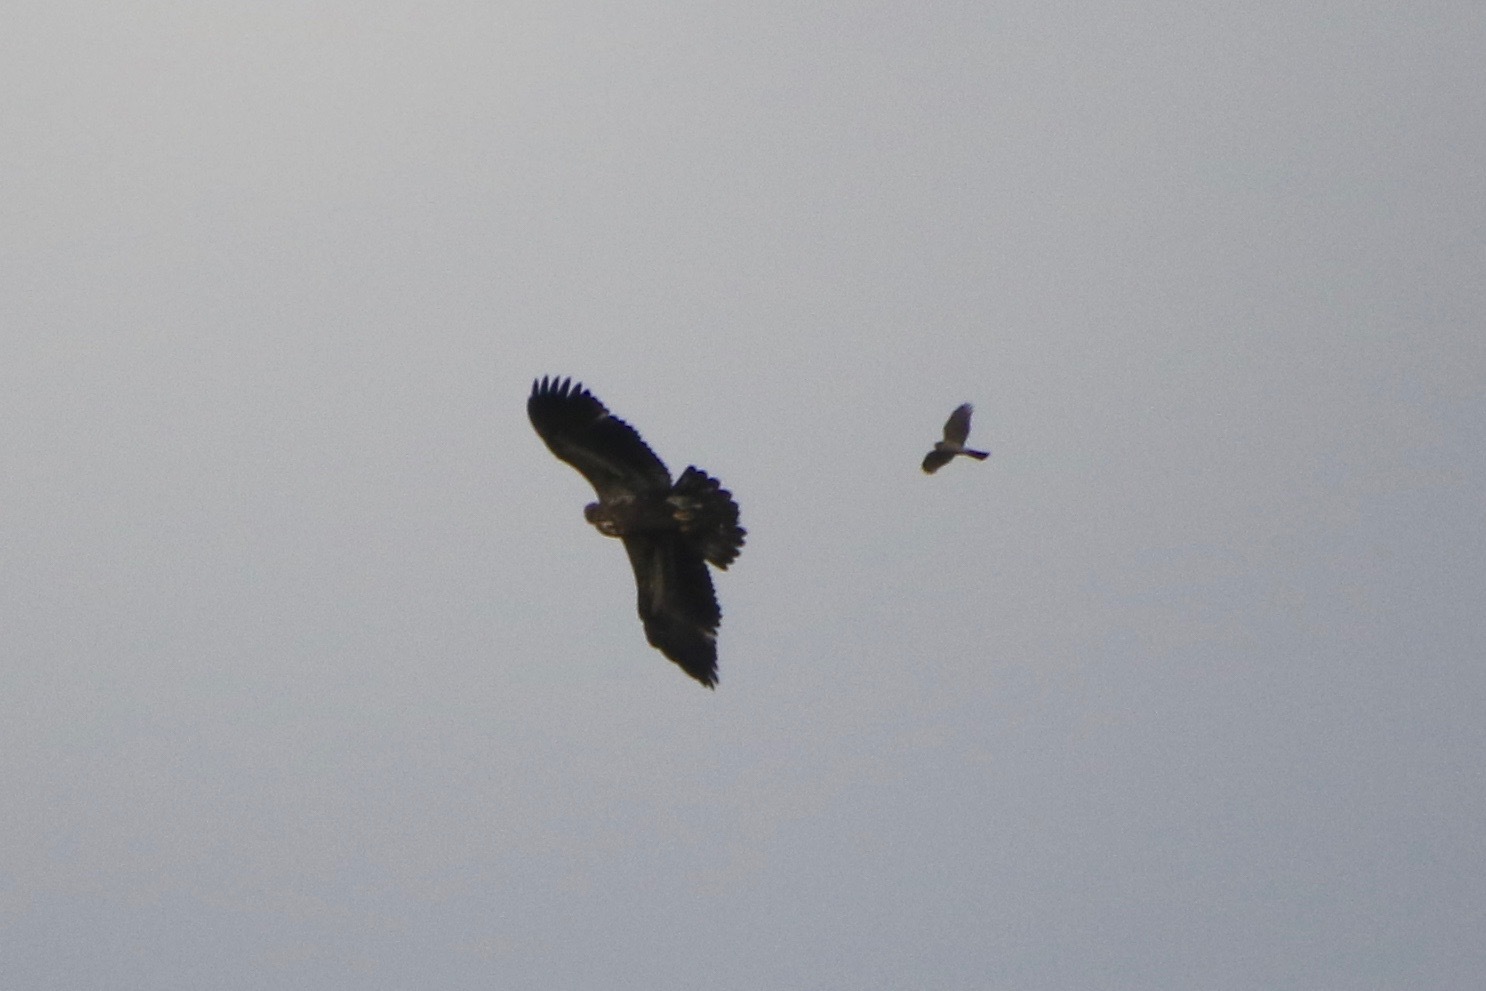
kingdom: Animalia
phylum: Chordata
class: Aves
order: Accipitriformes
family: Accipitridae
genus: Accipiter
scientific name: Accipiter striatus
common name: Sharp-shinned hawk
